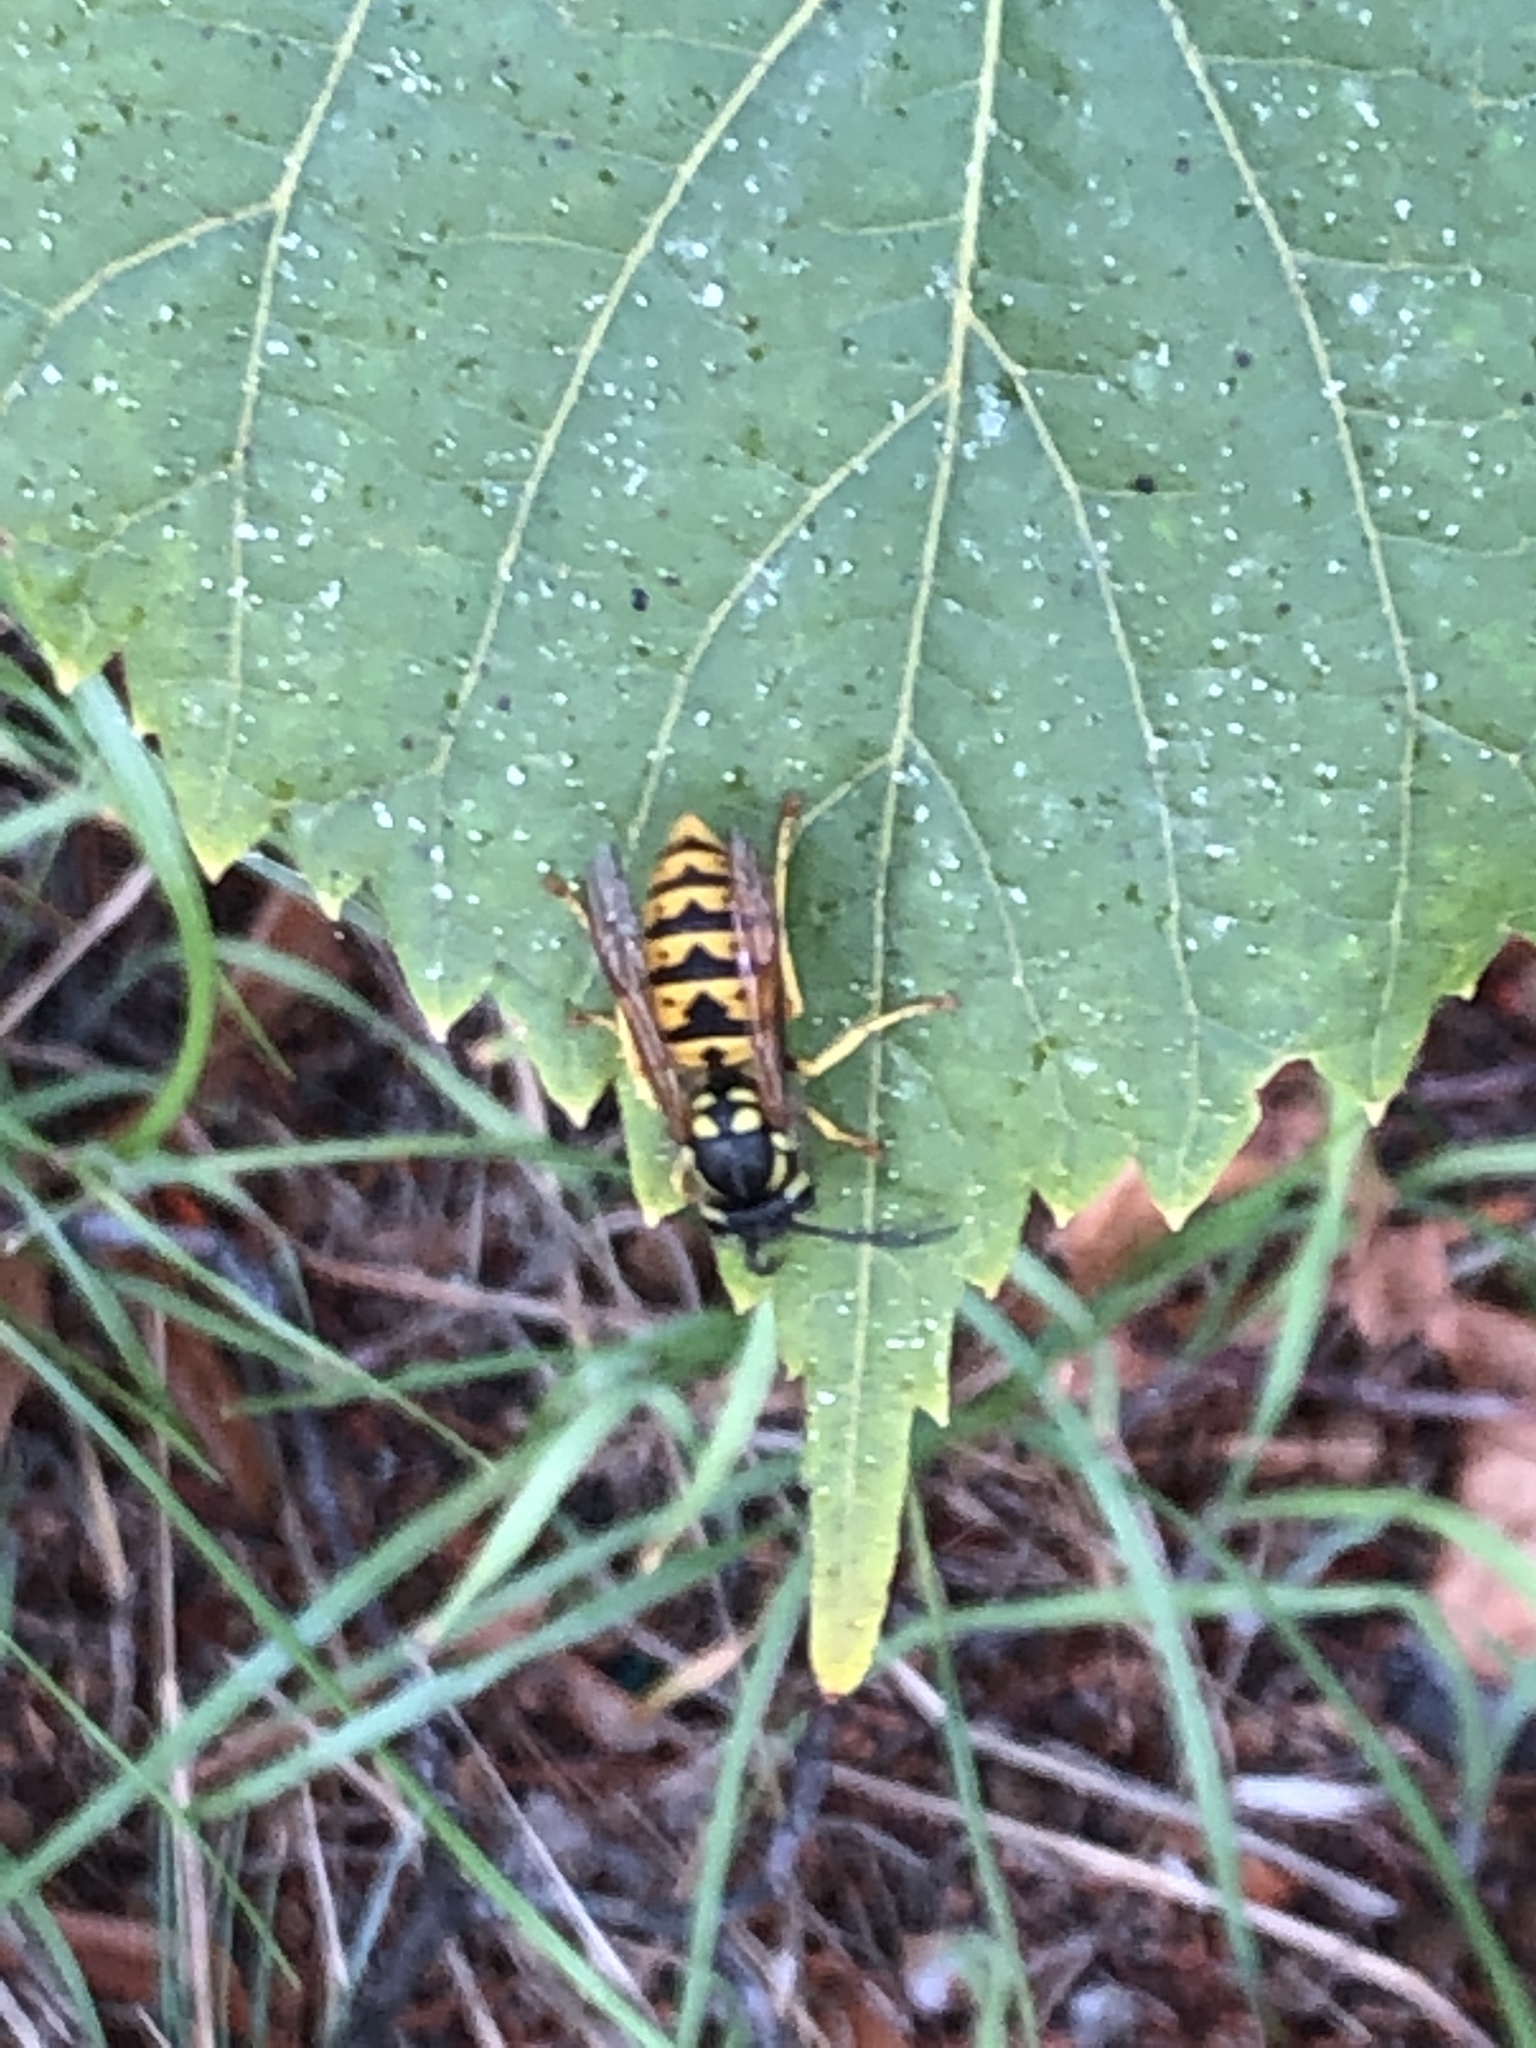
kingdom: Animalia
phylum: Arthropoda
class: Insecta
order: Hymenoptera
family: Vespidae
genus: Vespula
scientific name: Vespula germanica
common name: German wasp
